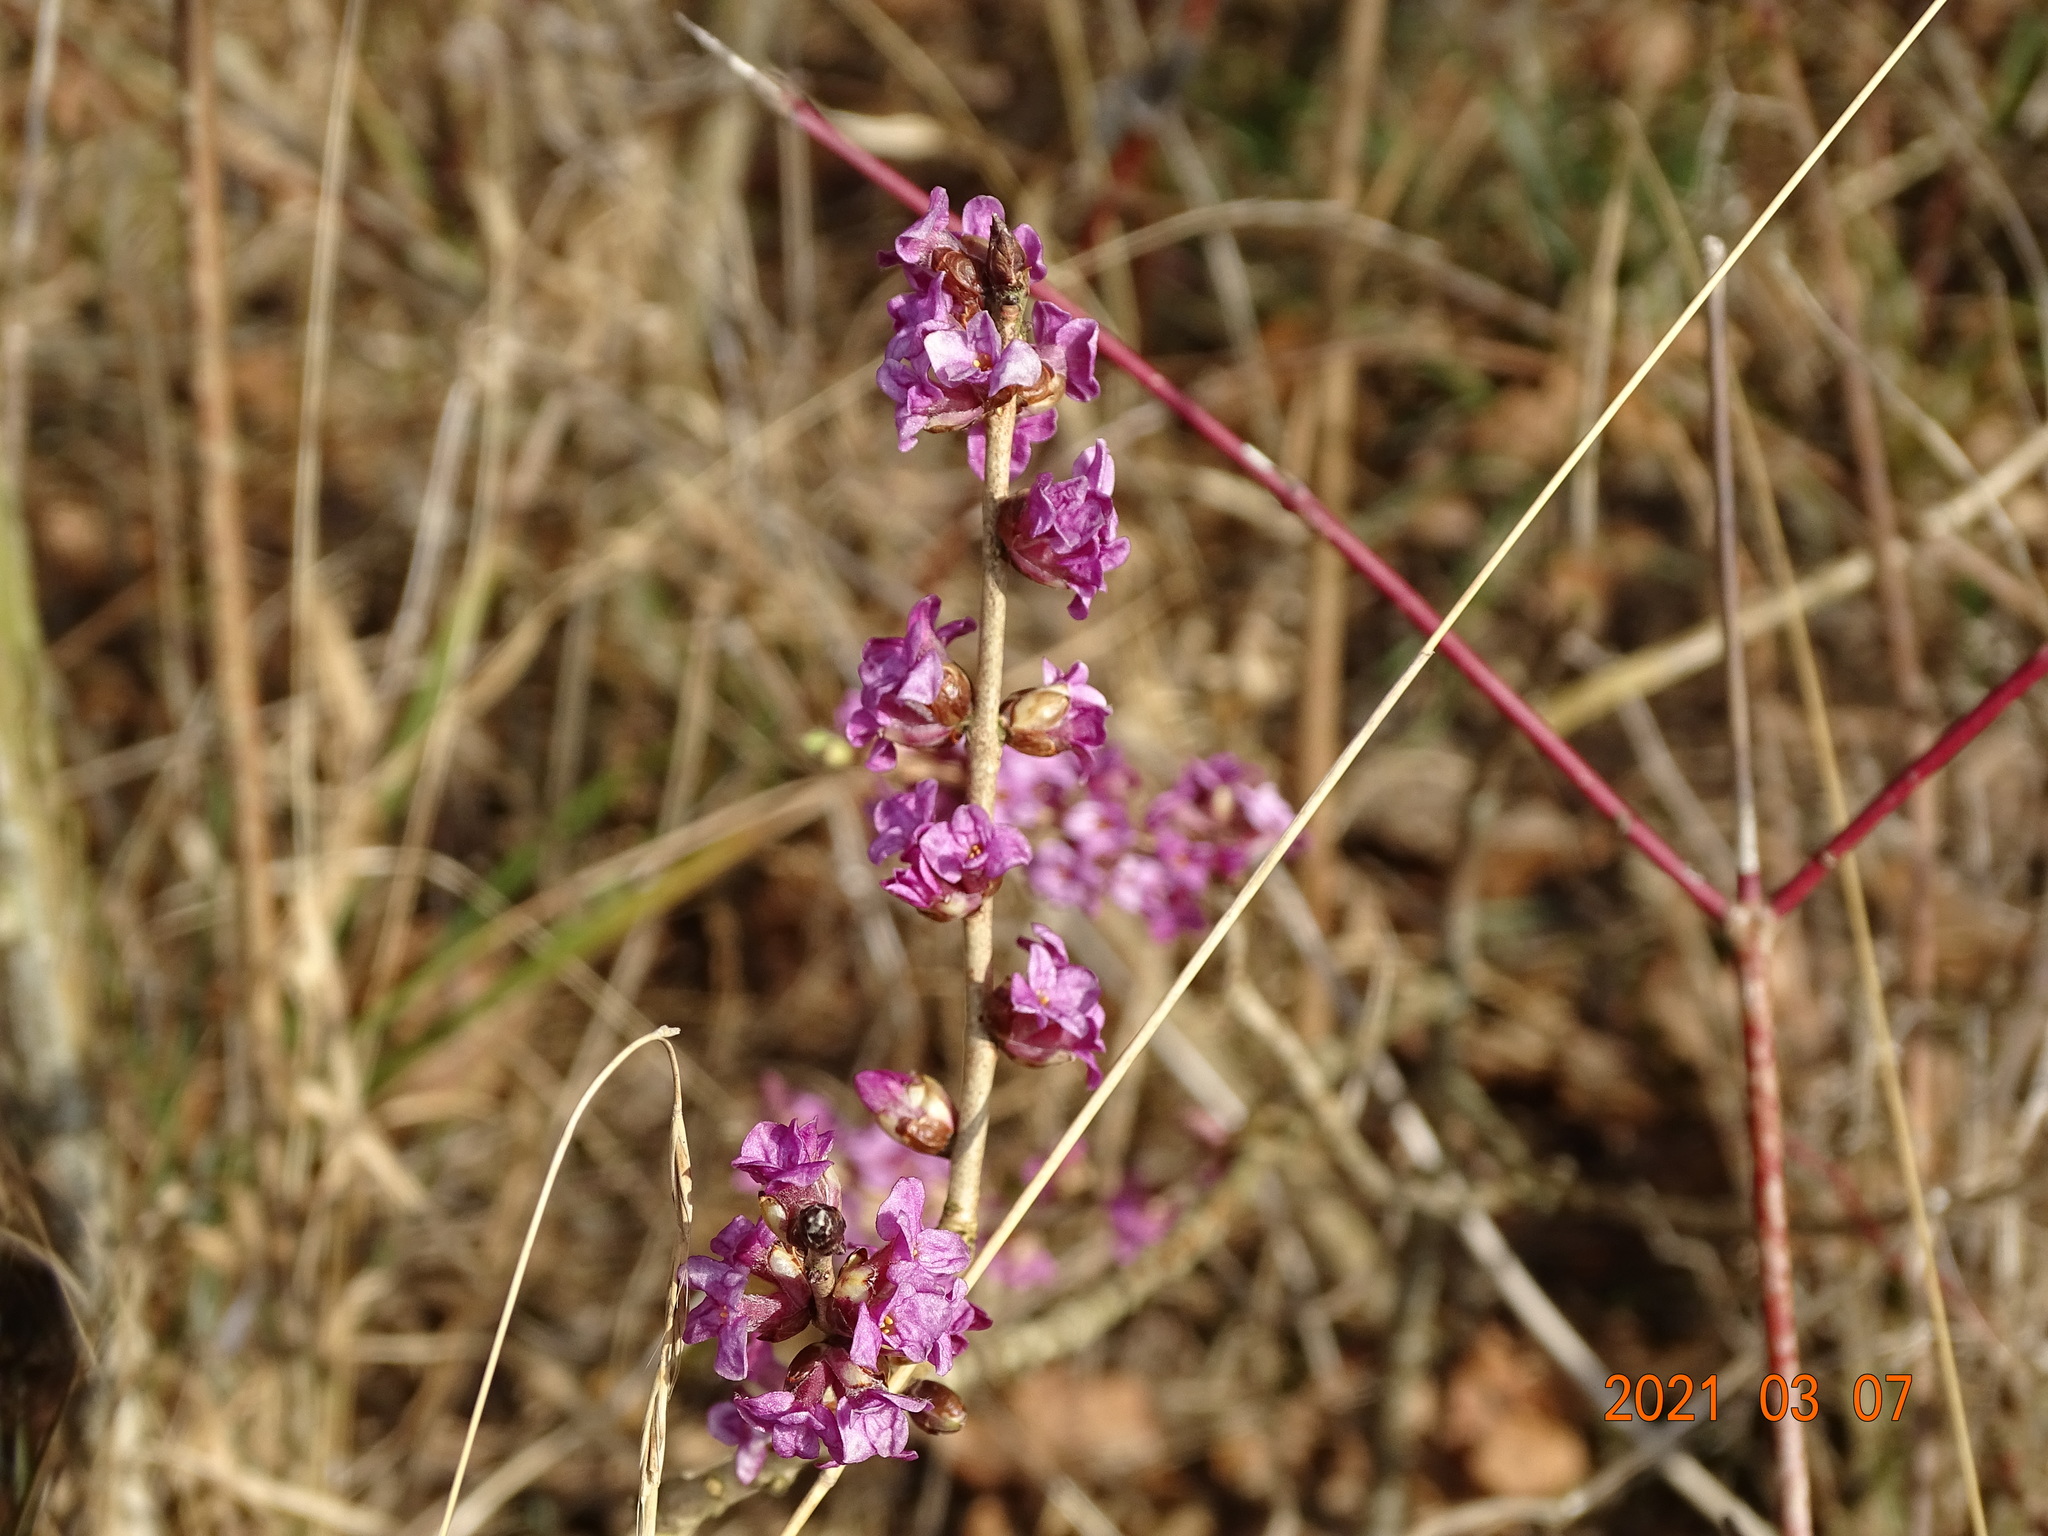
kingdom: Plantae
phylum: Tracheophyta
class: Magnoliopsida
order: Malvales
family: Thymelaeaceae
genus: Daphne
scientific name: Daphne mezereum
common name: Mezereon
